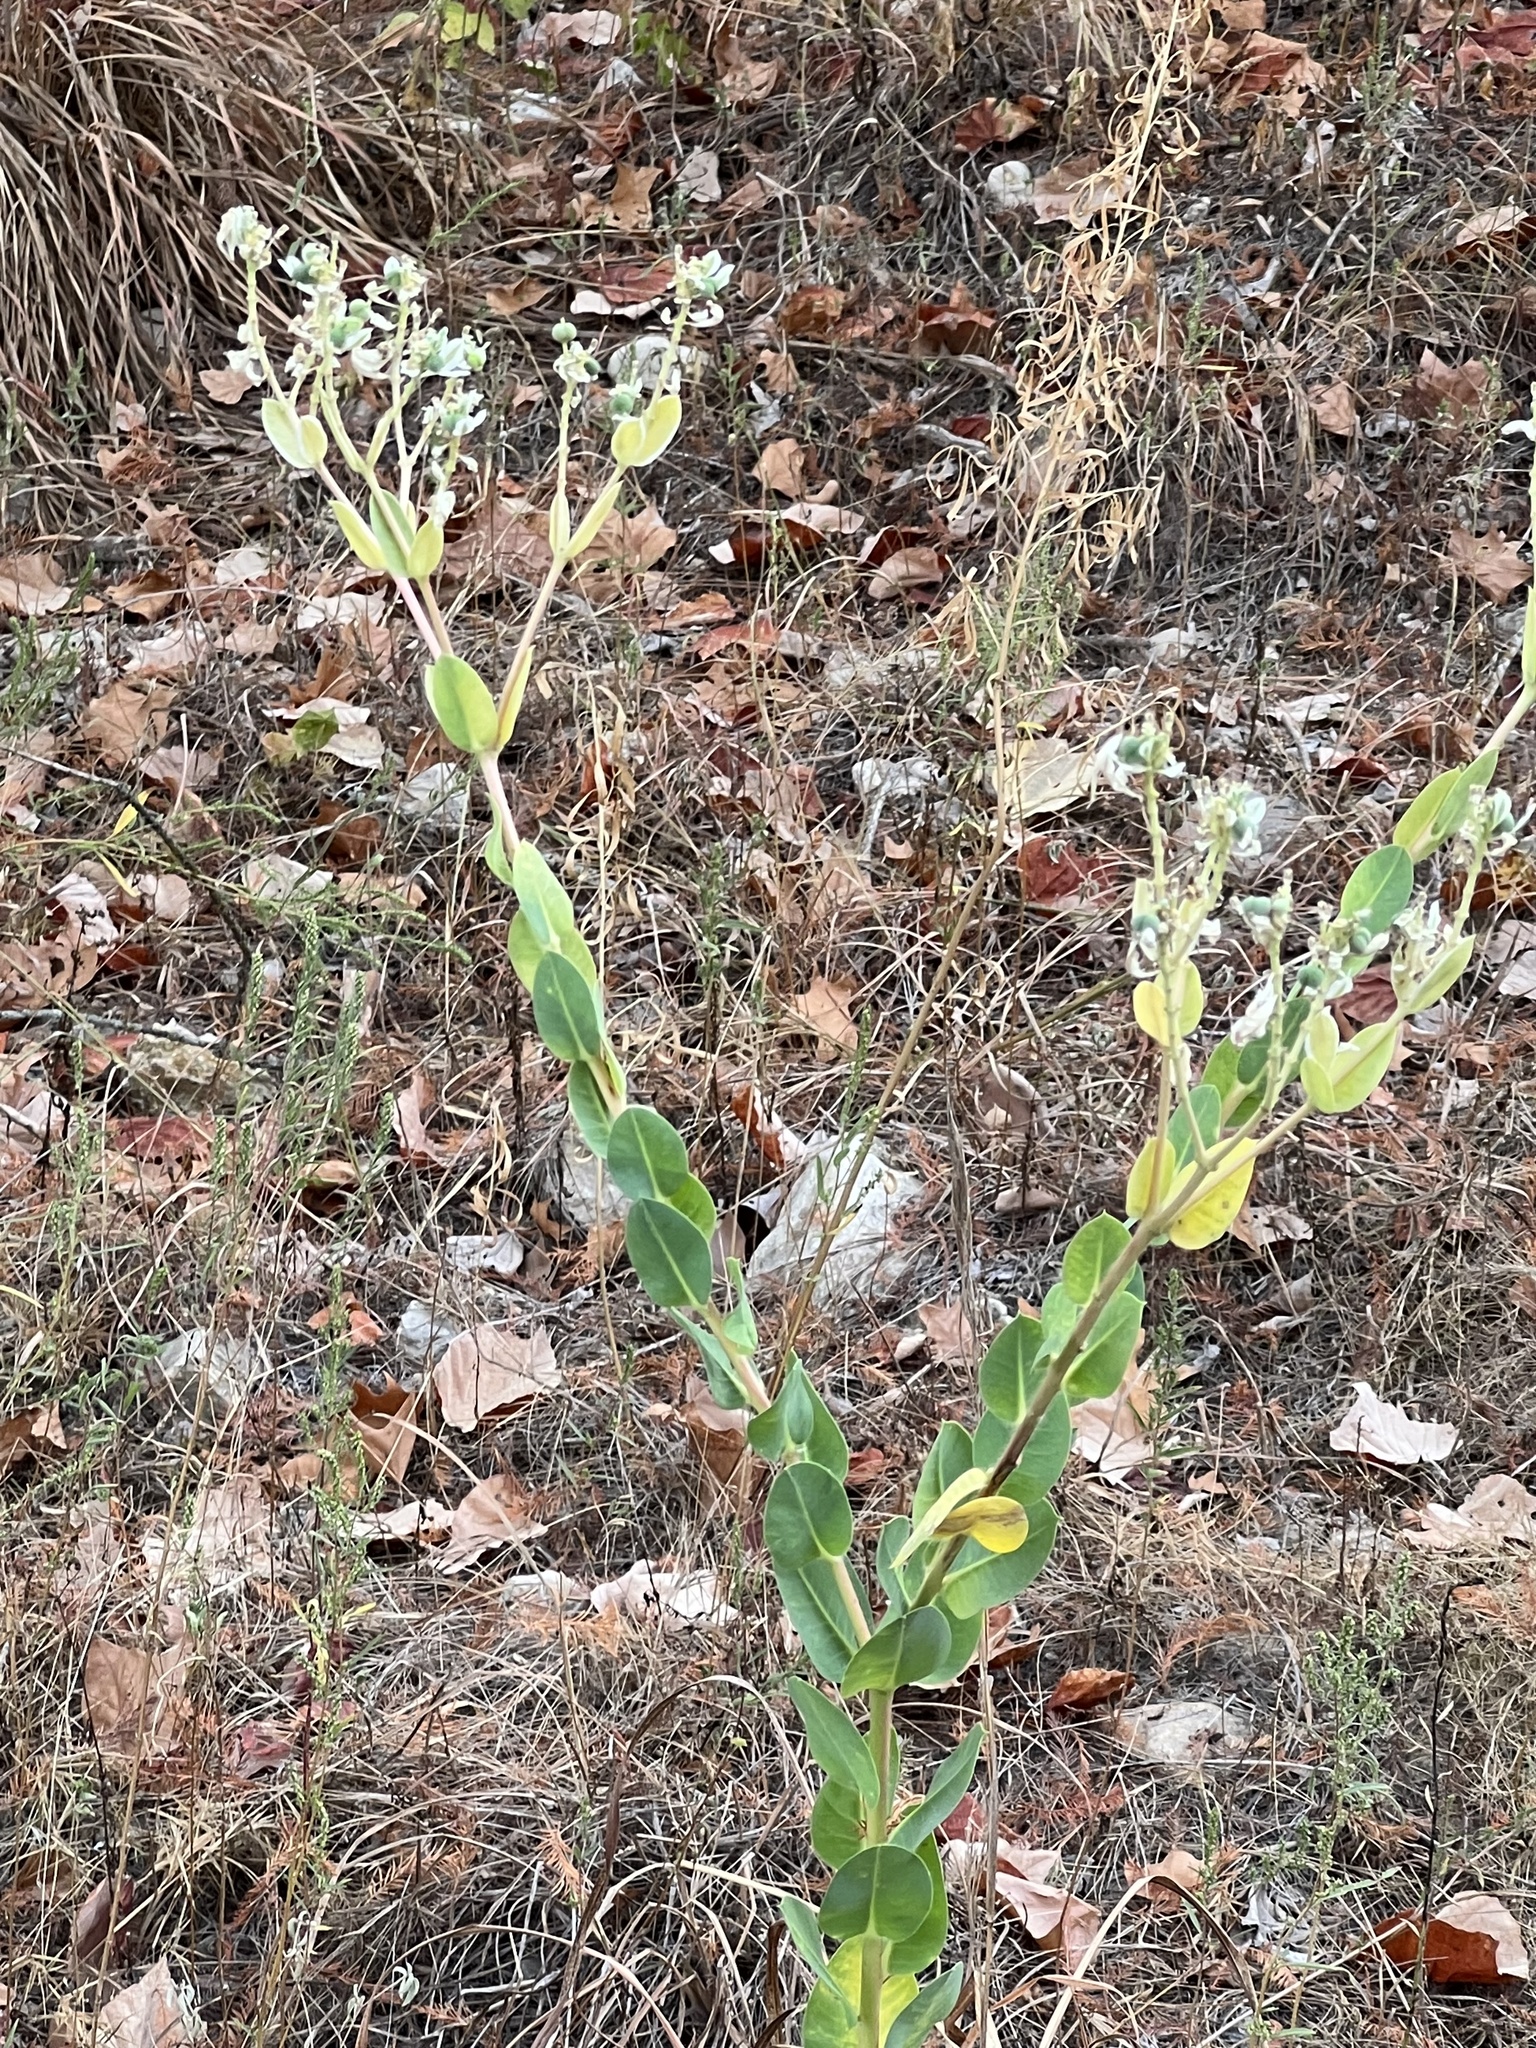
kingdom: Plantae
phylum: Tracheophyta
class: Magnoliopsida
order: Malpighiales
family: Euphorbiaceae
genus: Euphorbia
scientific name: Euphorbia marginata
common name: Ghostweed
